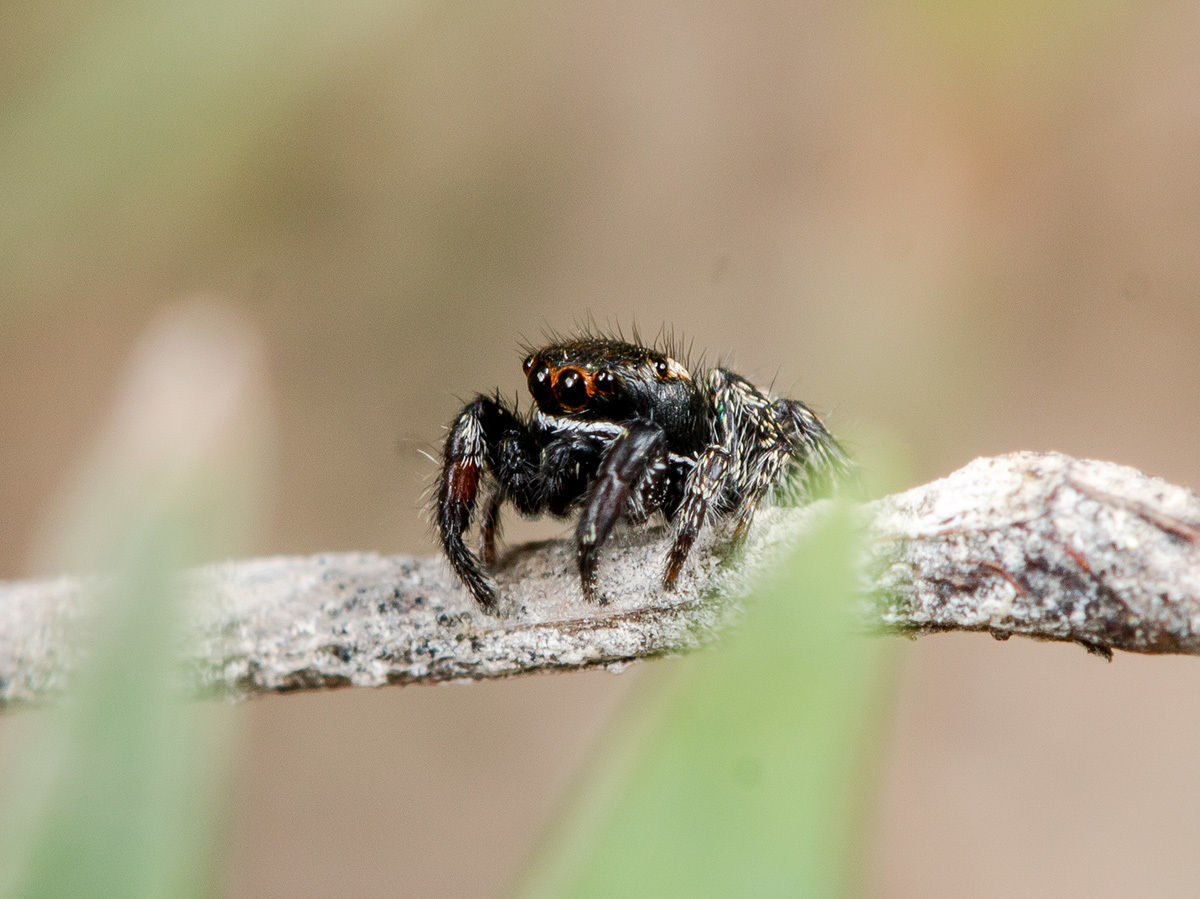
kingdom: Animalia
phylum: Arthropoda
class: Arachnida
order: Araneae
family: Salticidae
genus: Pellenes
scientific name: Pellenes allegrii
